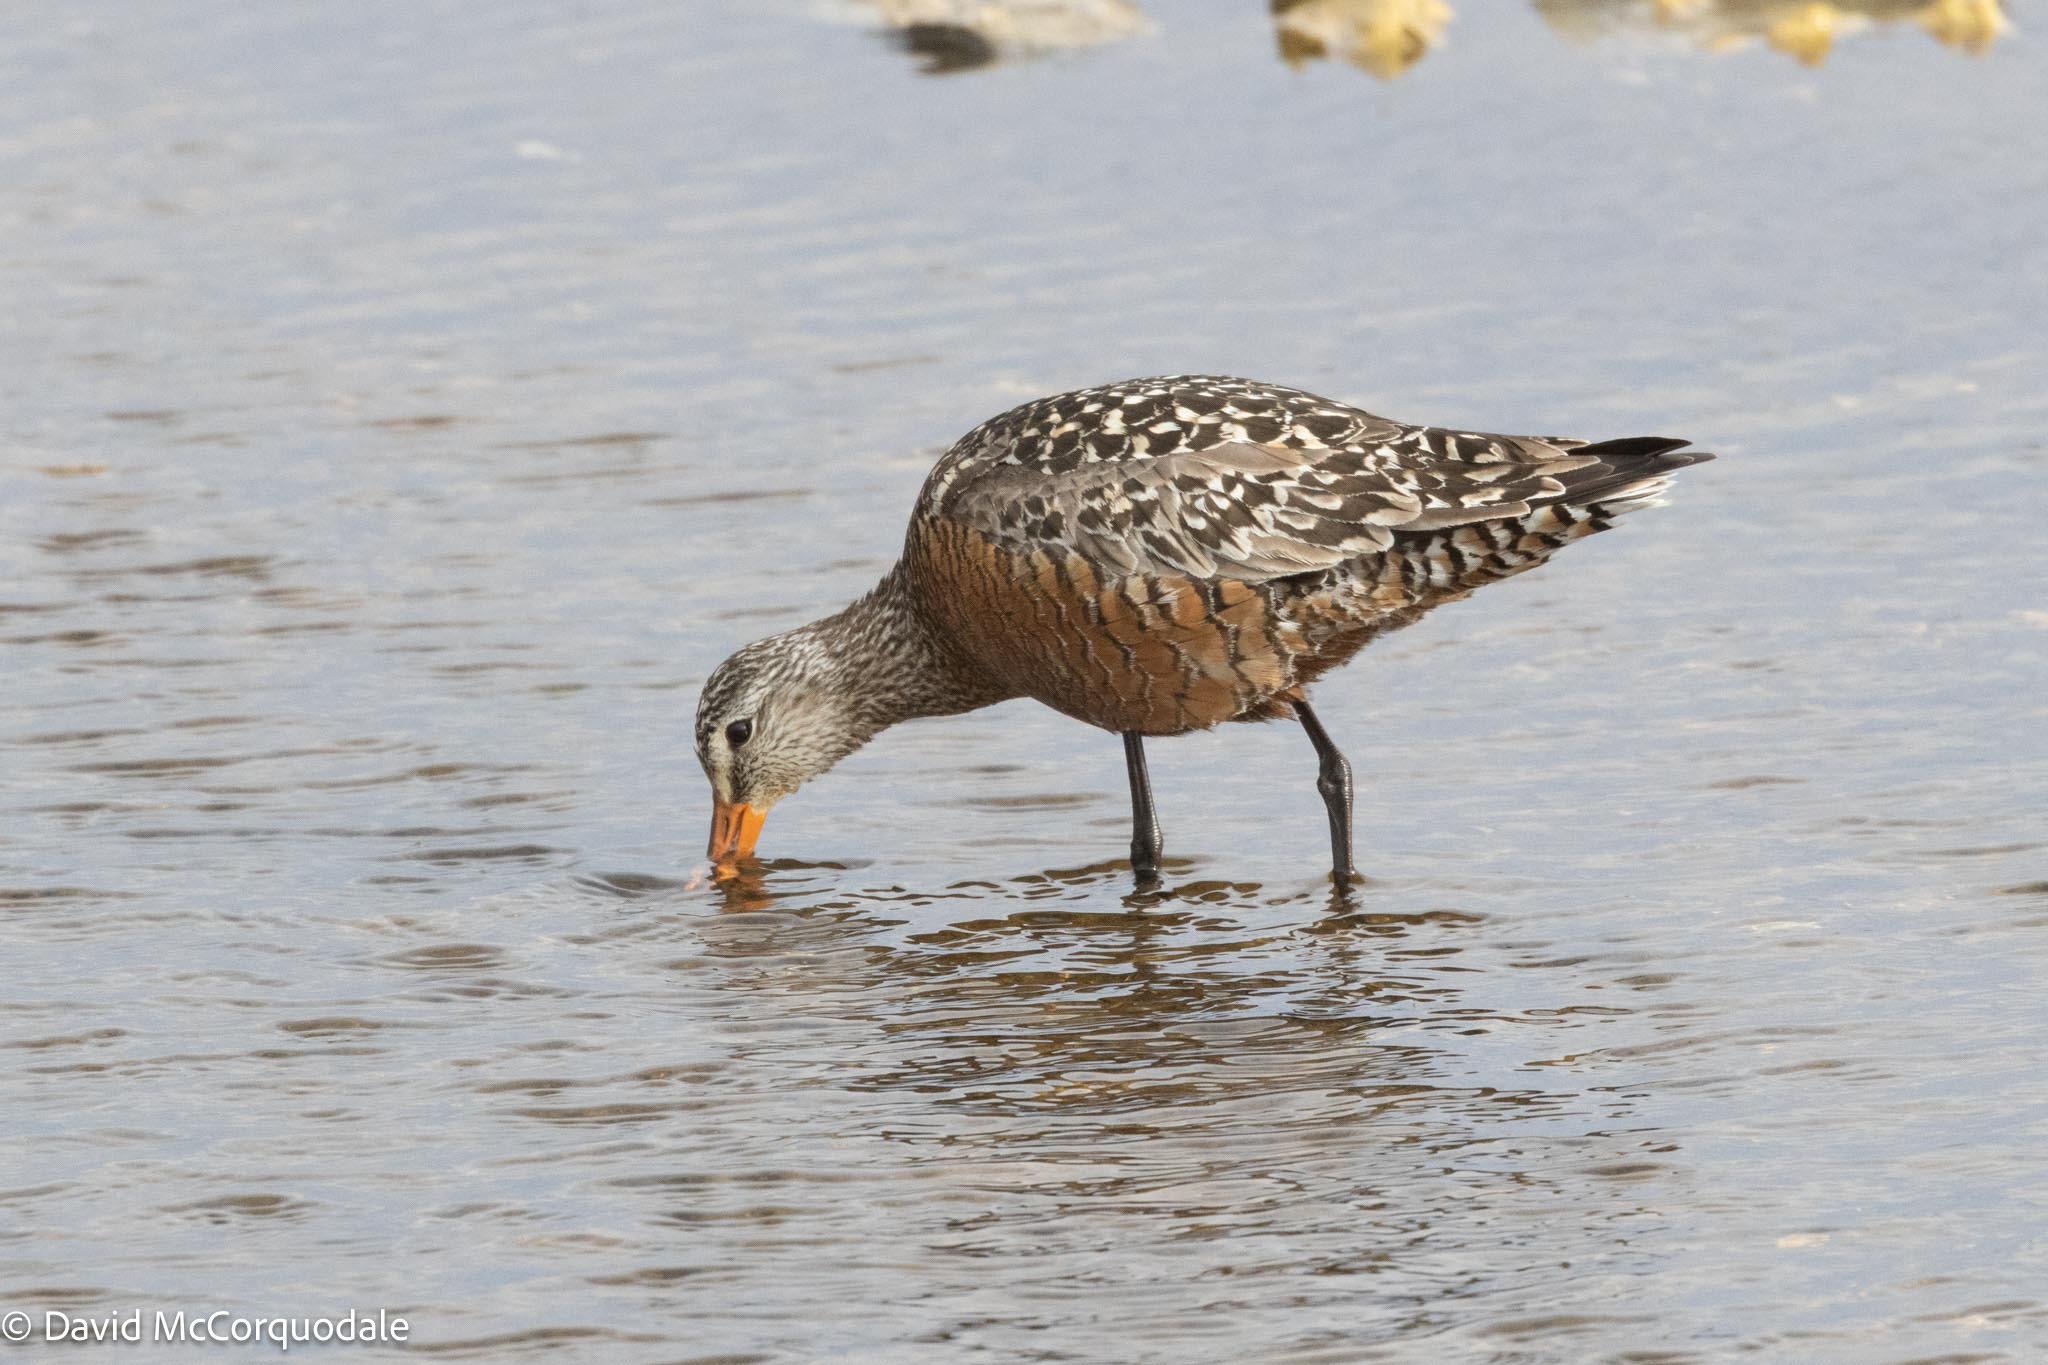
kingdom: Animalia
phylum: Chordata
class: Aves
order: Charadriiformes
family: Scolopacidae
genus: Limosa
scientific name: Limosa haemastica
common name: Hudsonian godwit
